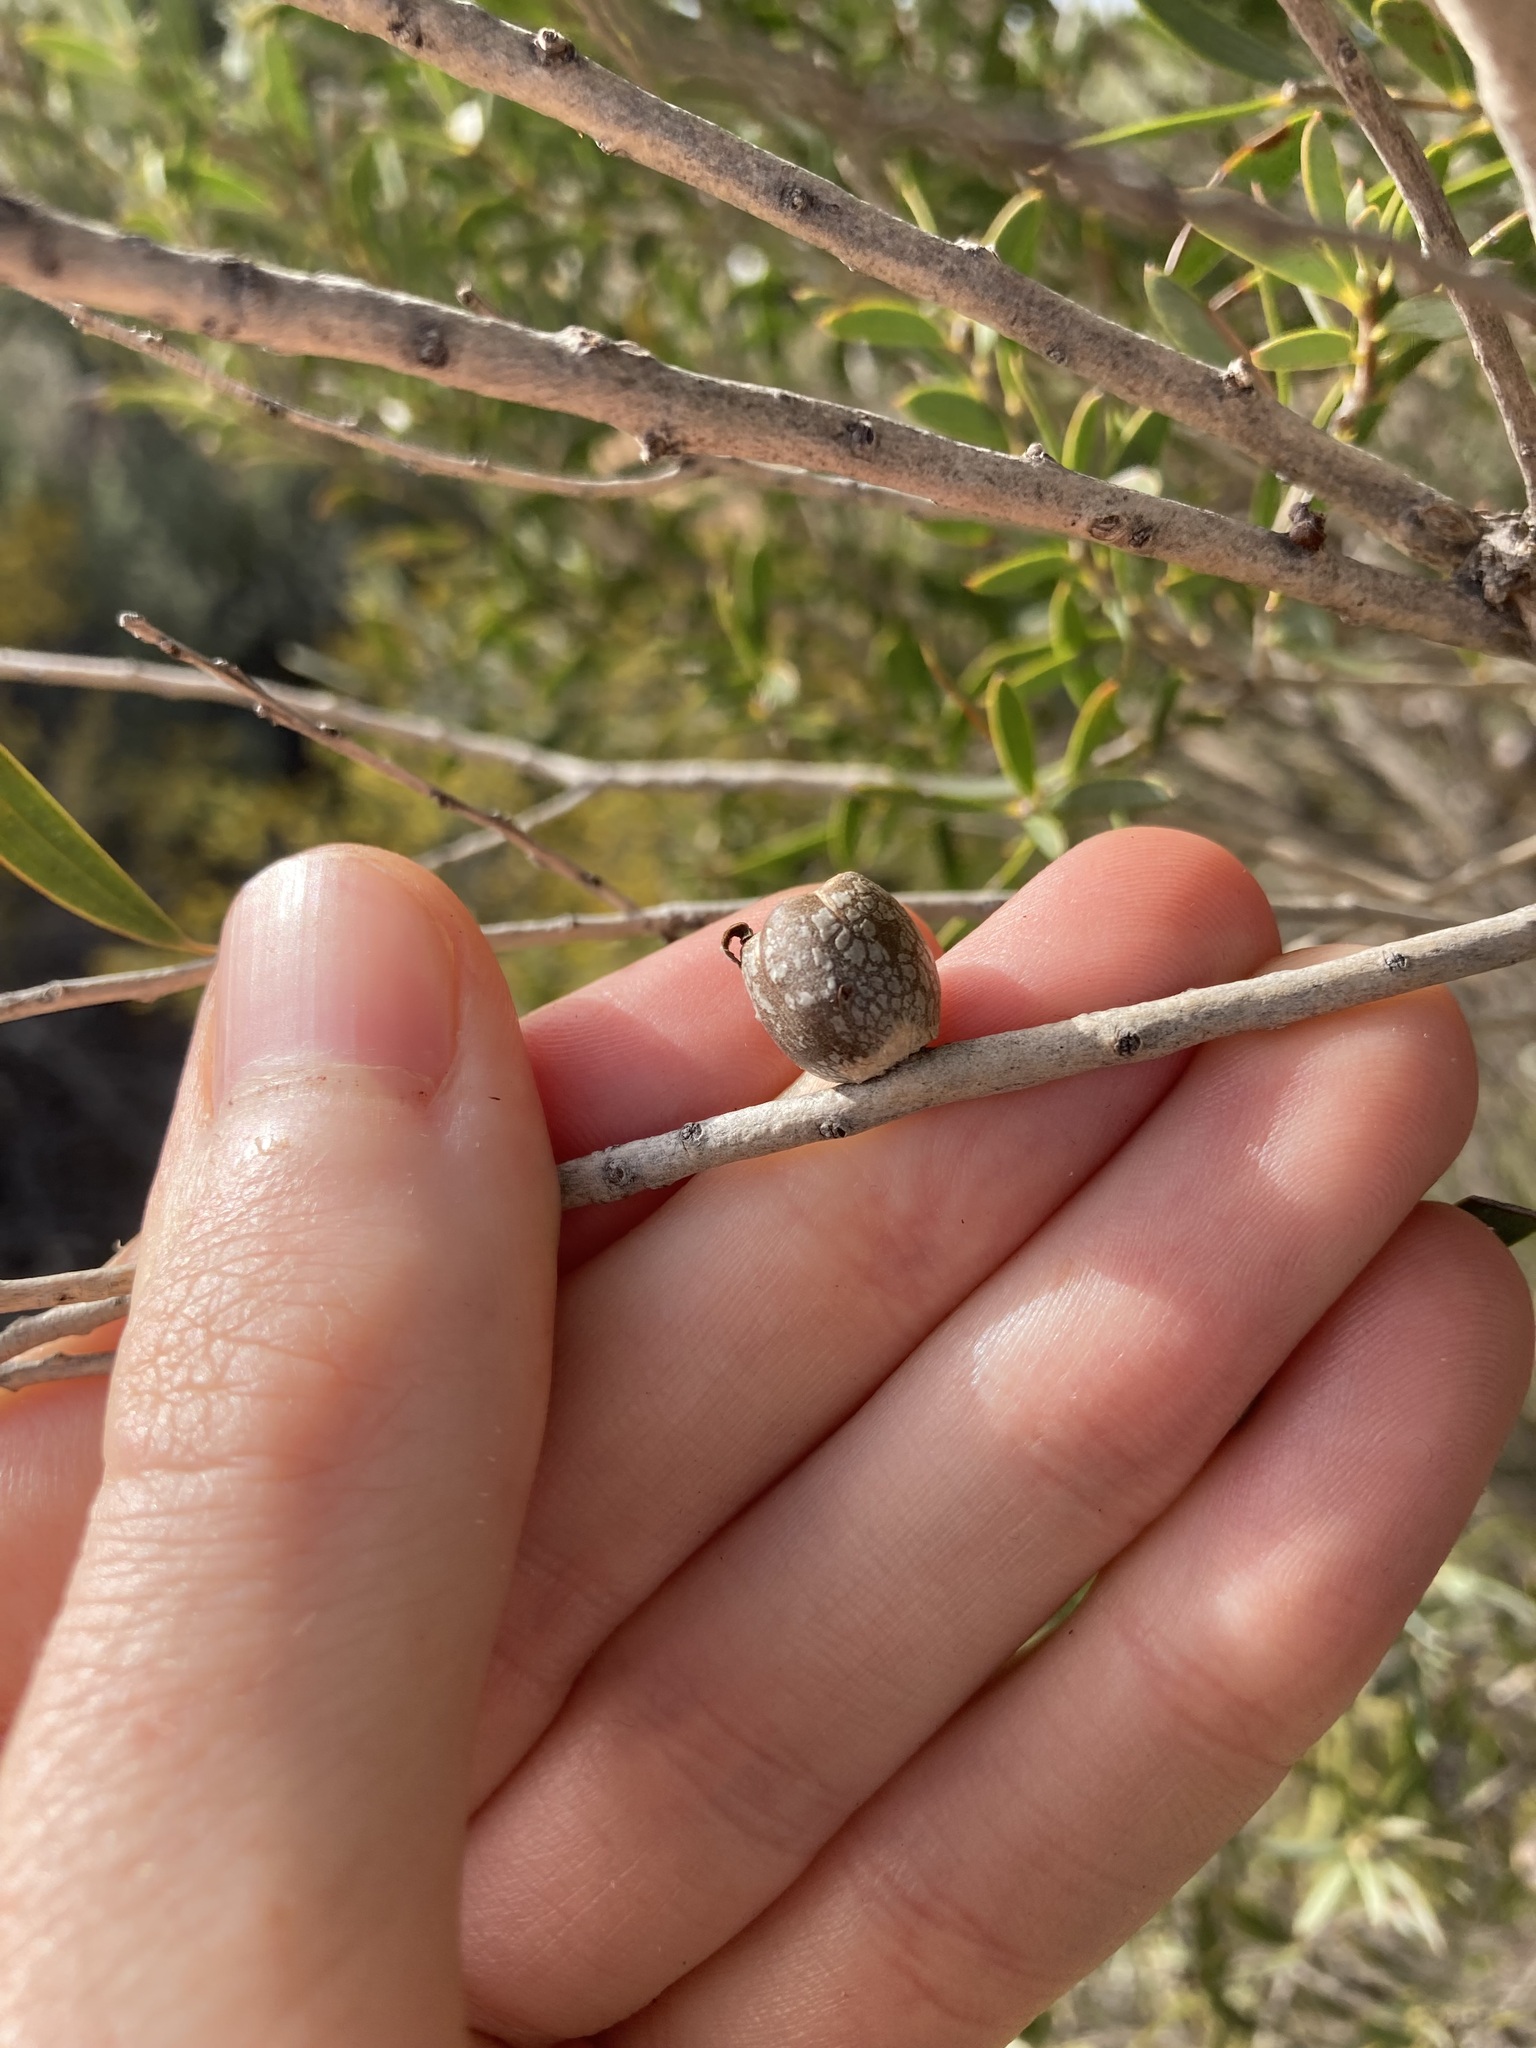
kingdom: Plantae
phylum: Tracheophyta
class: Magnoliopsida
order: Myrtales
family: Myrtaceae
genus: Melaleuca
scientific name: Melaleuca hakeifolia
